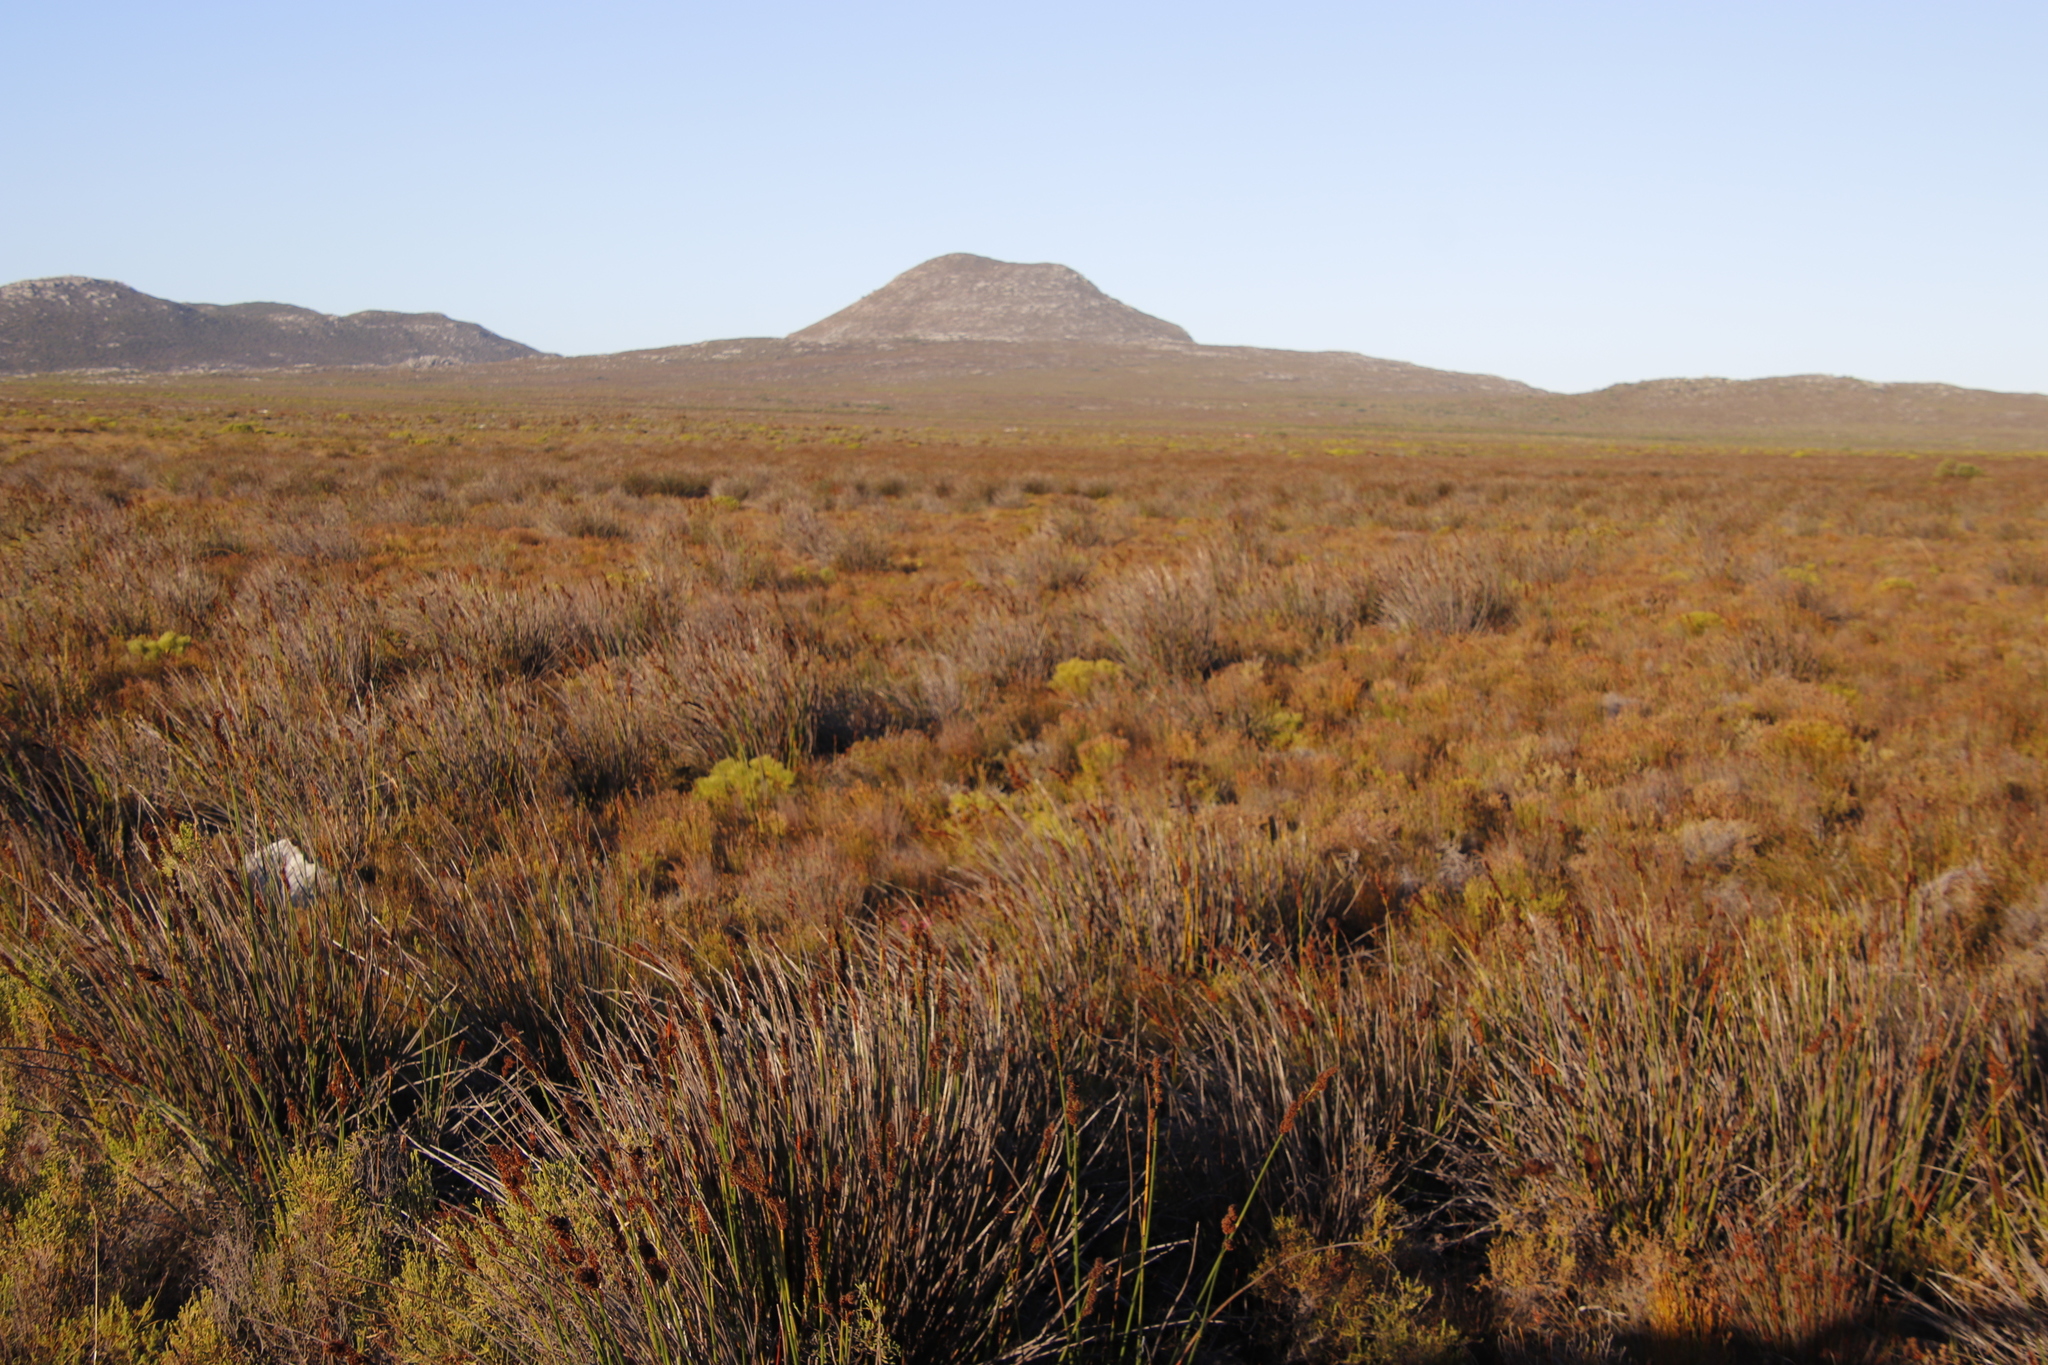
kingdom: Plantae
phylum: Tracheophyta
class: Liliopsida
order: Poales
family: Restionaceae
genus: Elegia
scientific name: Elegia cuspidata
